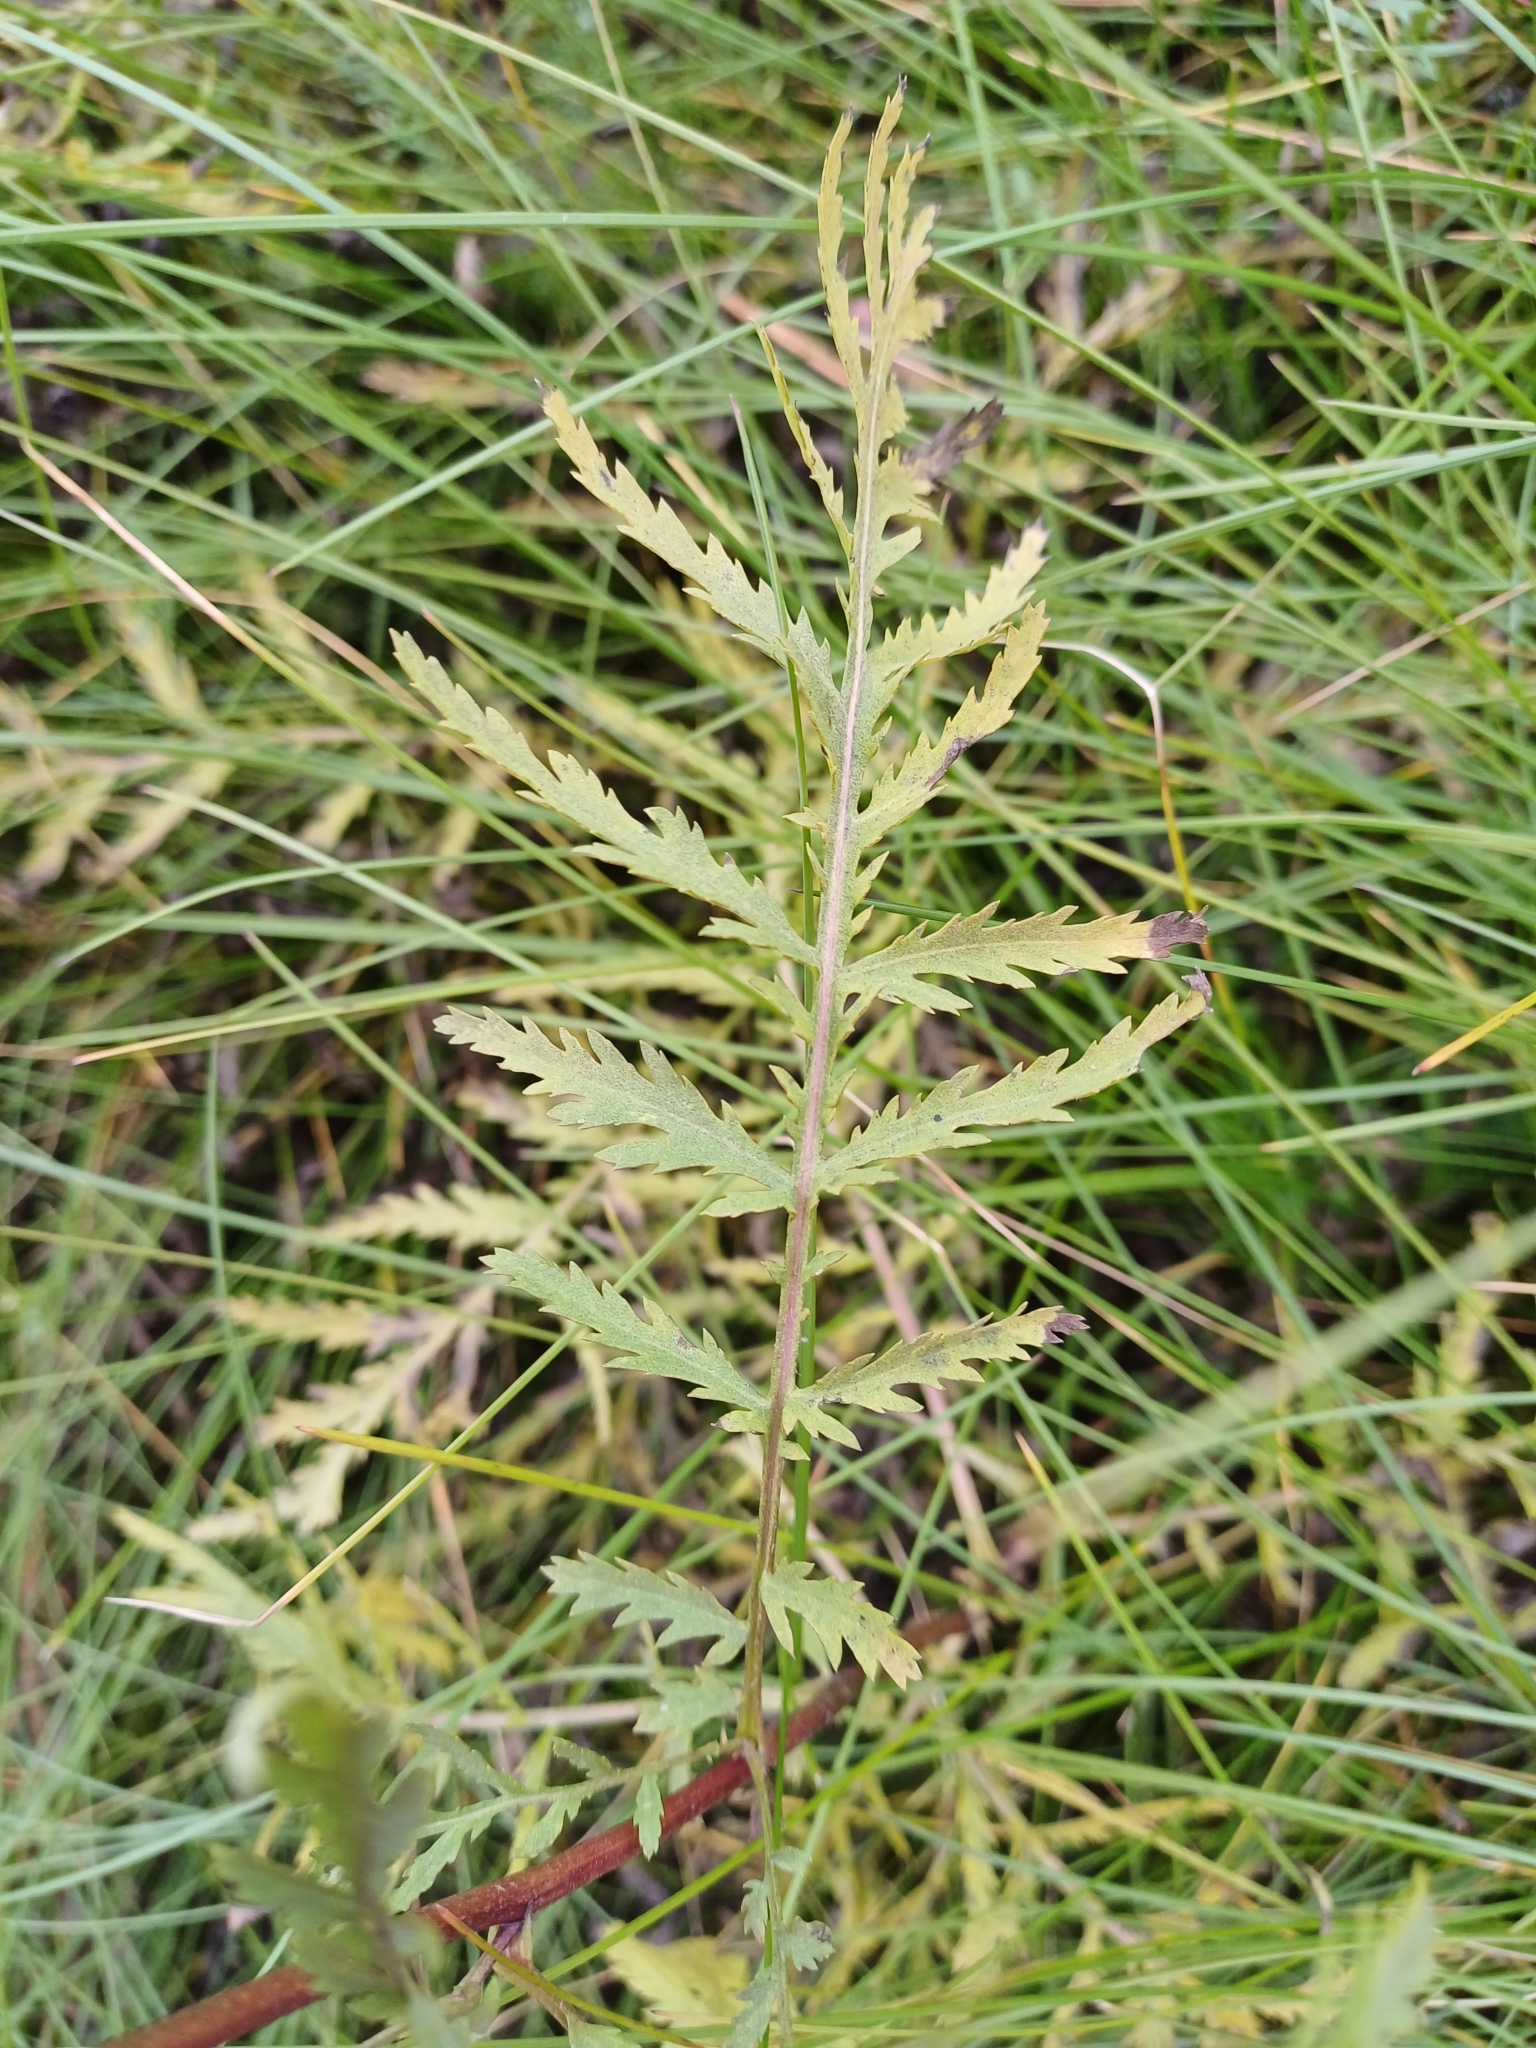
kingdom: Plantae
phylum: Tracheophyta
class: Magnoliopsida
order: Asterales
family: Asteraceae
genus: Tanacetum
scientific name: Tanacetum vulgare
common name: Common tansy
